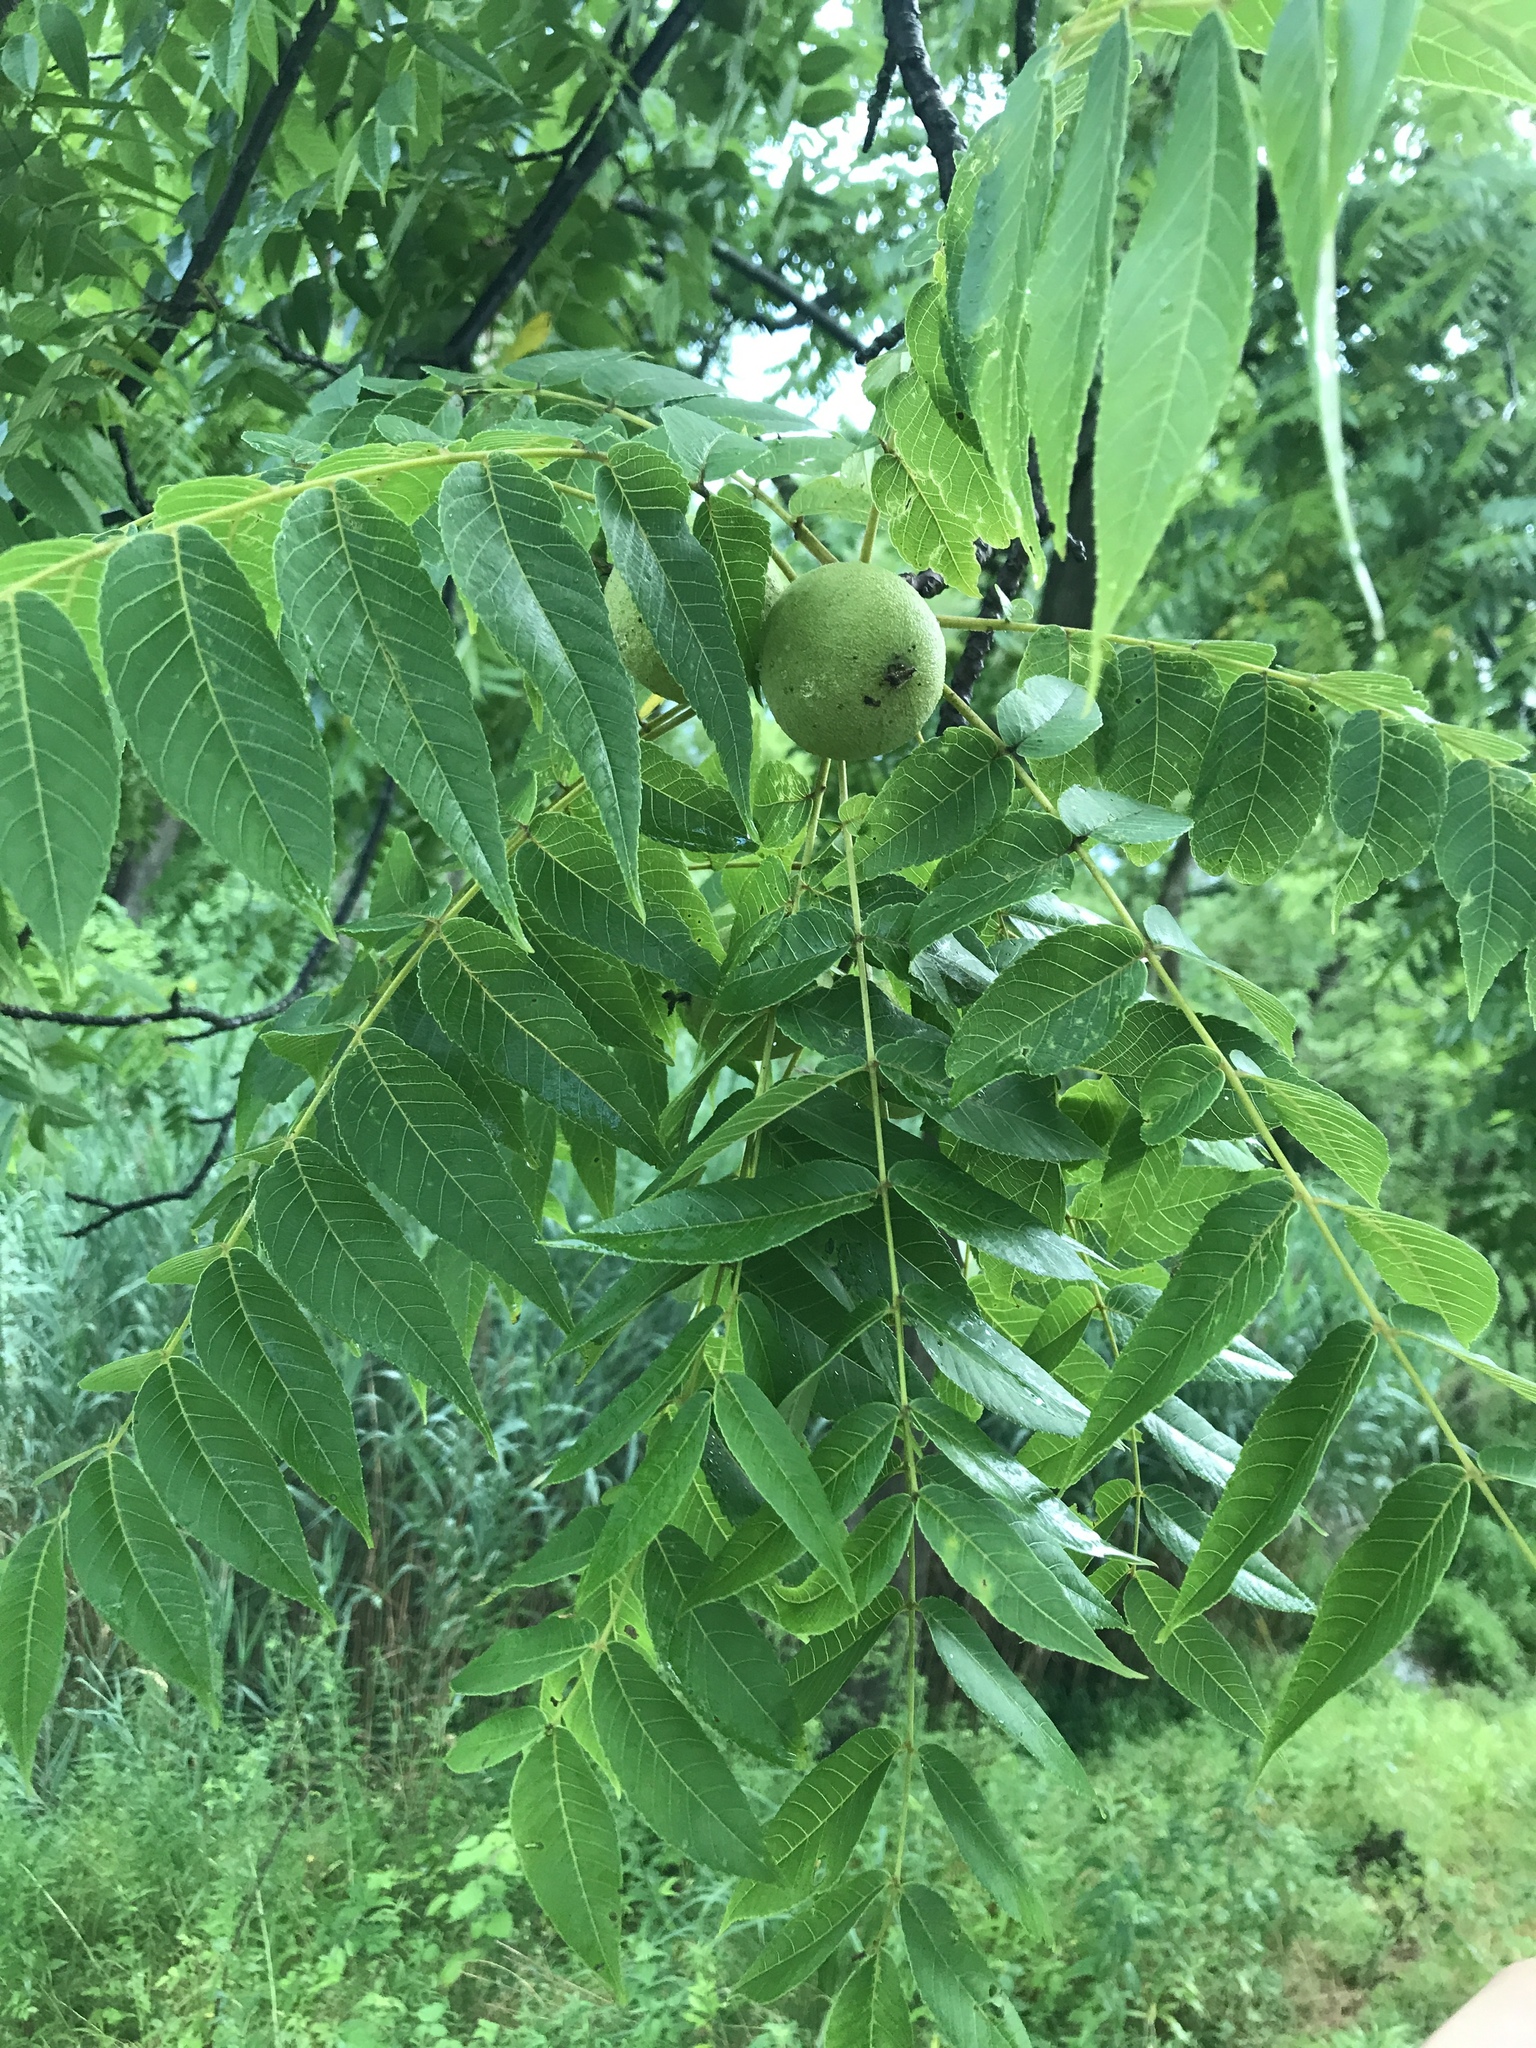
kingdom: Plantae
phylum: Tracheophyta
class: Magnoliopsida
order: Fagales
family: Juglandaceae
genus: Juglans
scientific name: Juglans nigra
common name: Black walnut
